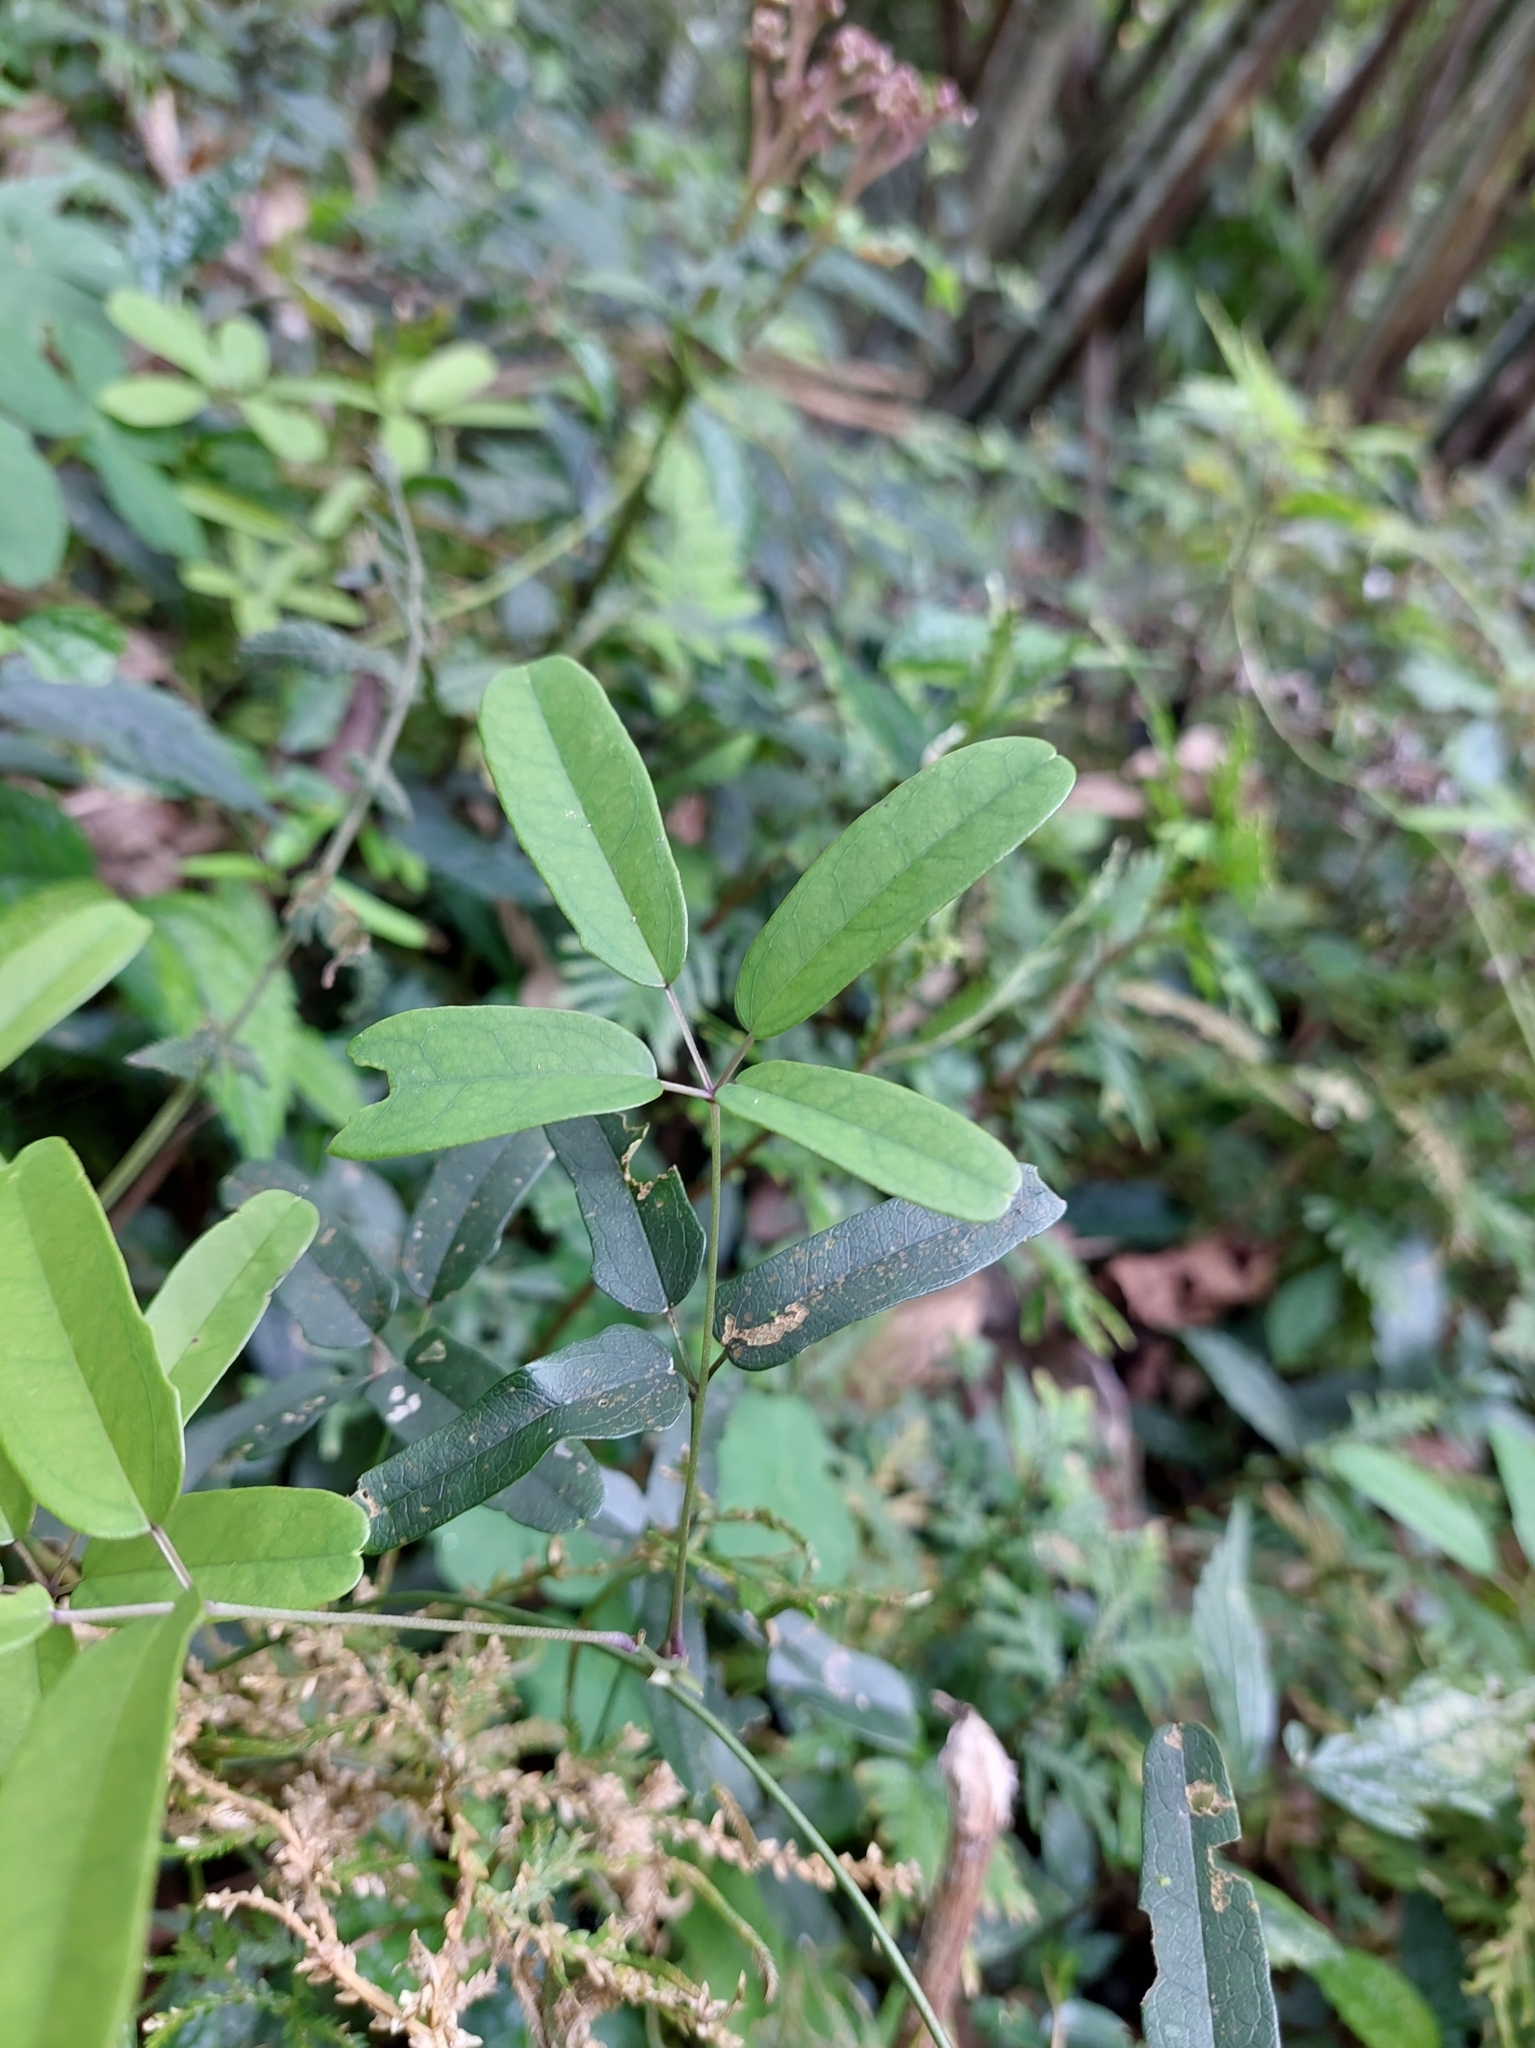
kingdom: Plantae
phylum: Tracheophyta
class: Magnoliopsida
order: Ranunculales
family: Lardizabalaceae
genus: Akebia
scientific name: Akebia longeracemosa
